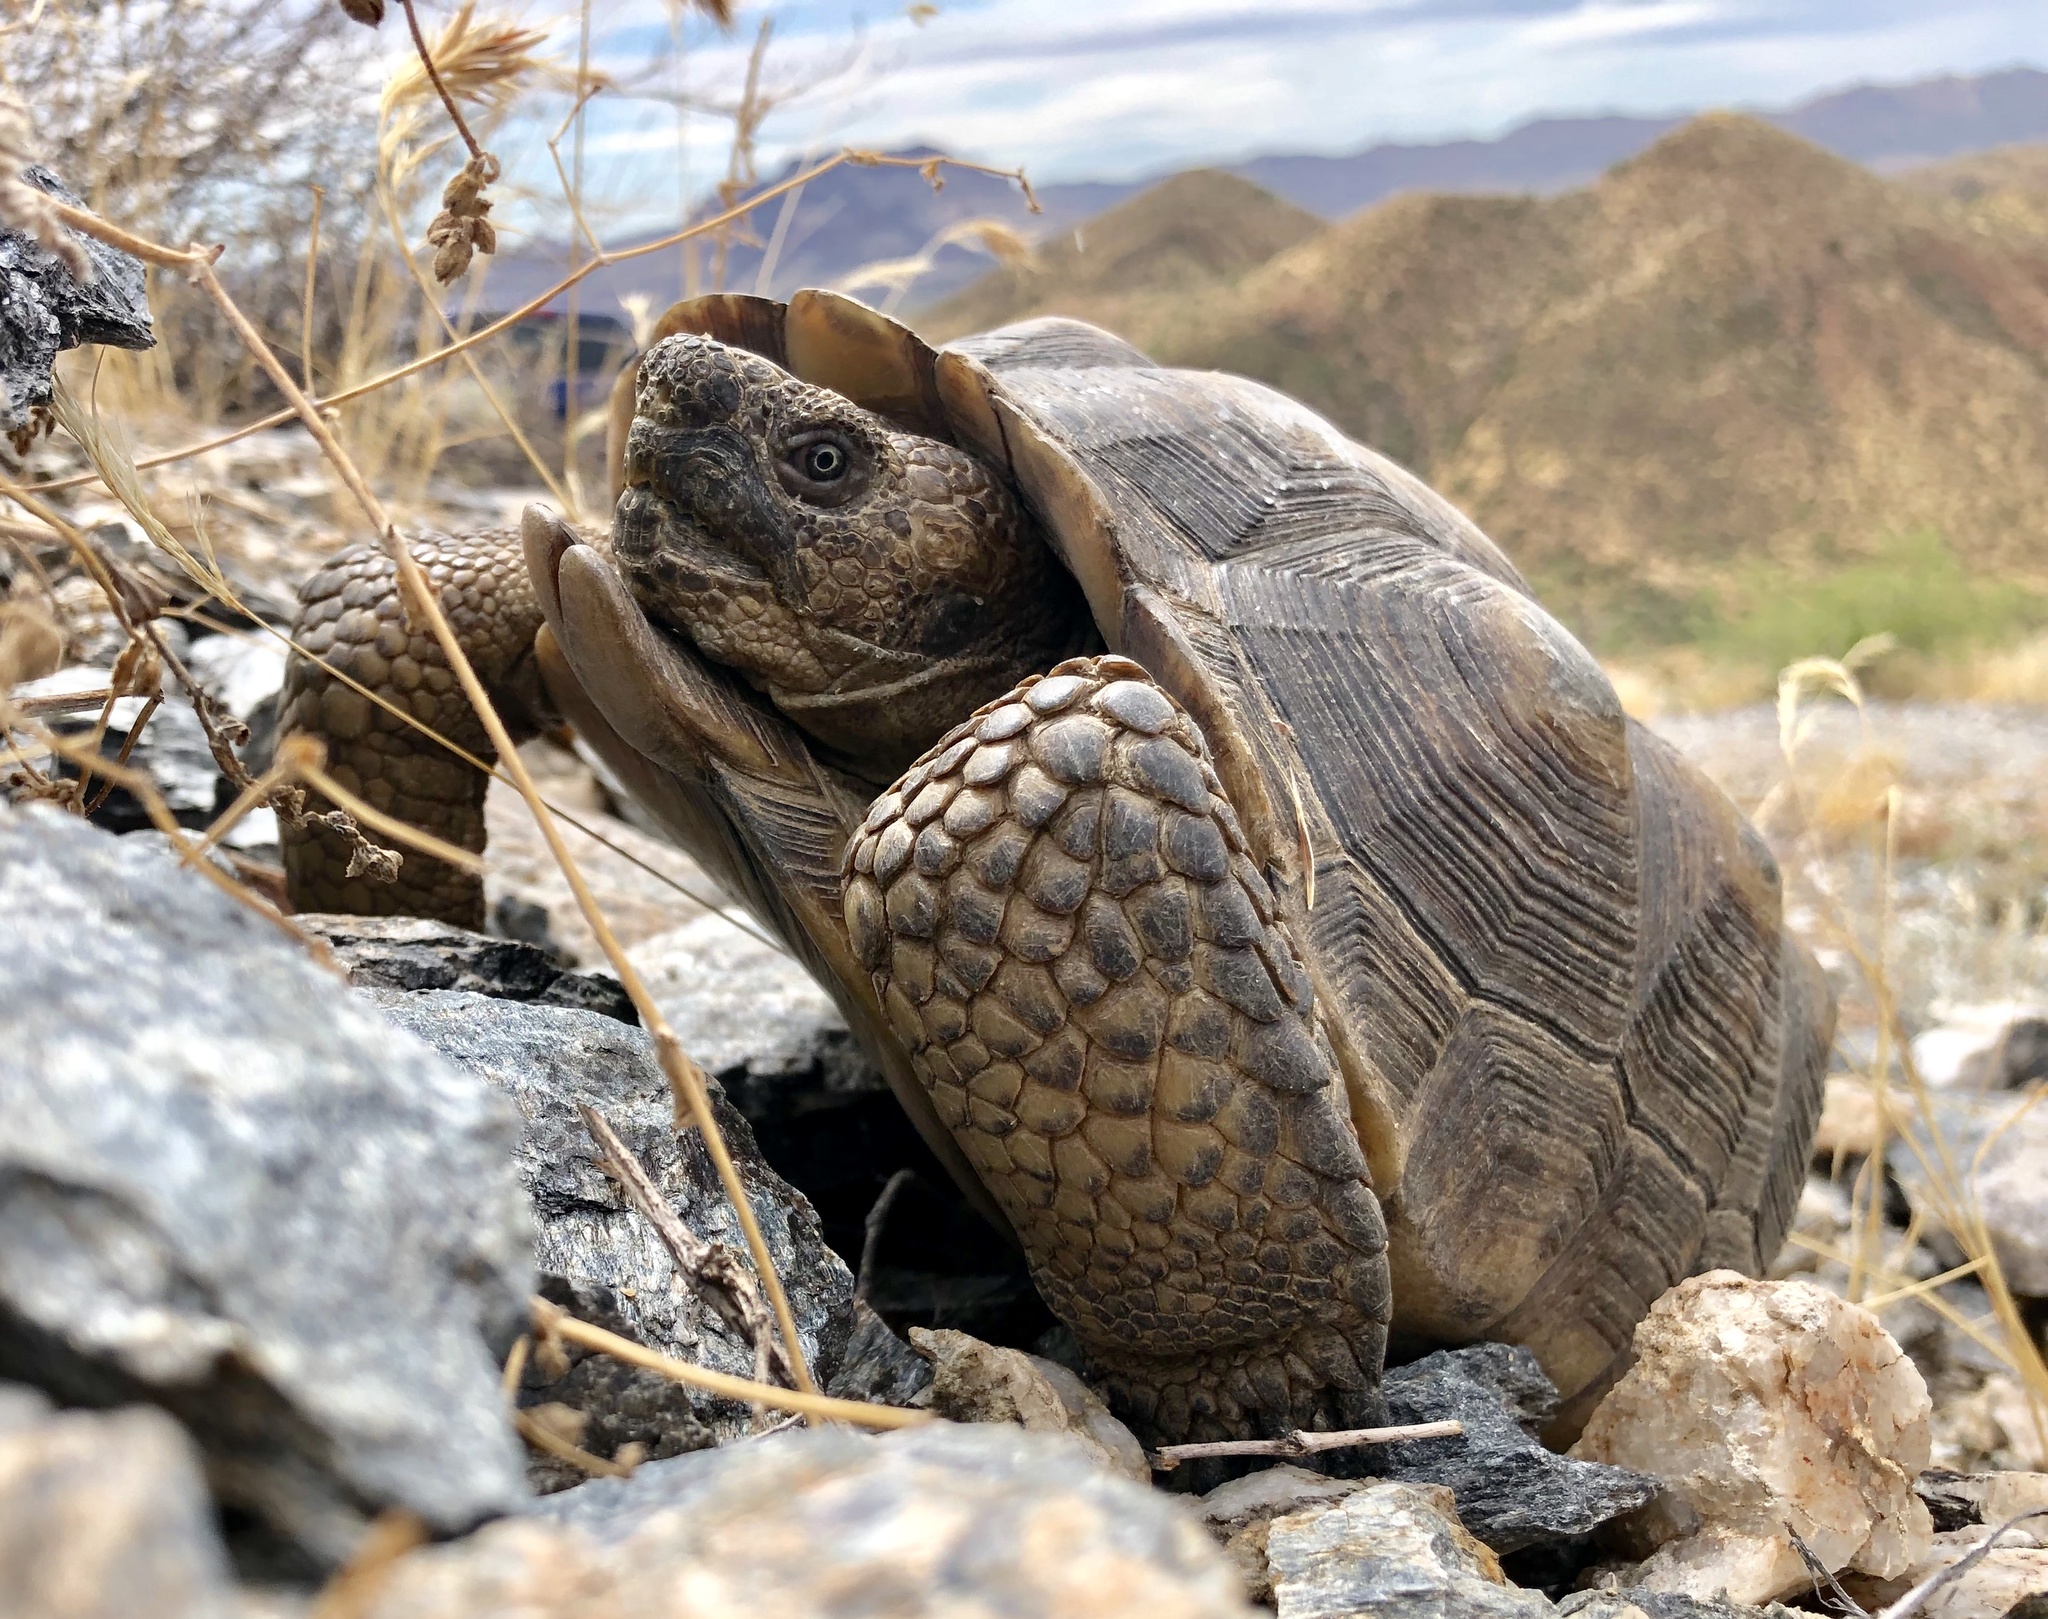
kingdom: Animalia
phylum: Chordata
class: Testudines
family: Testudinidae
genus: Gopherus
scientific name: Gopherus morafkai
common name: Sonoran desert tortoise
